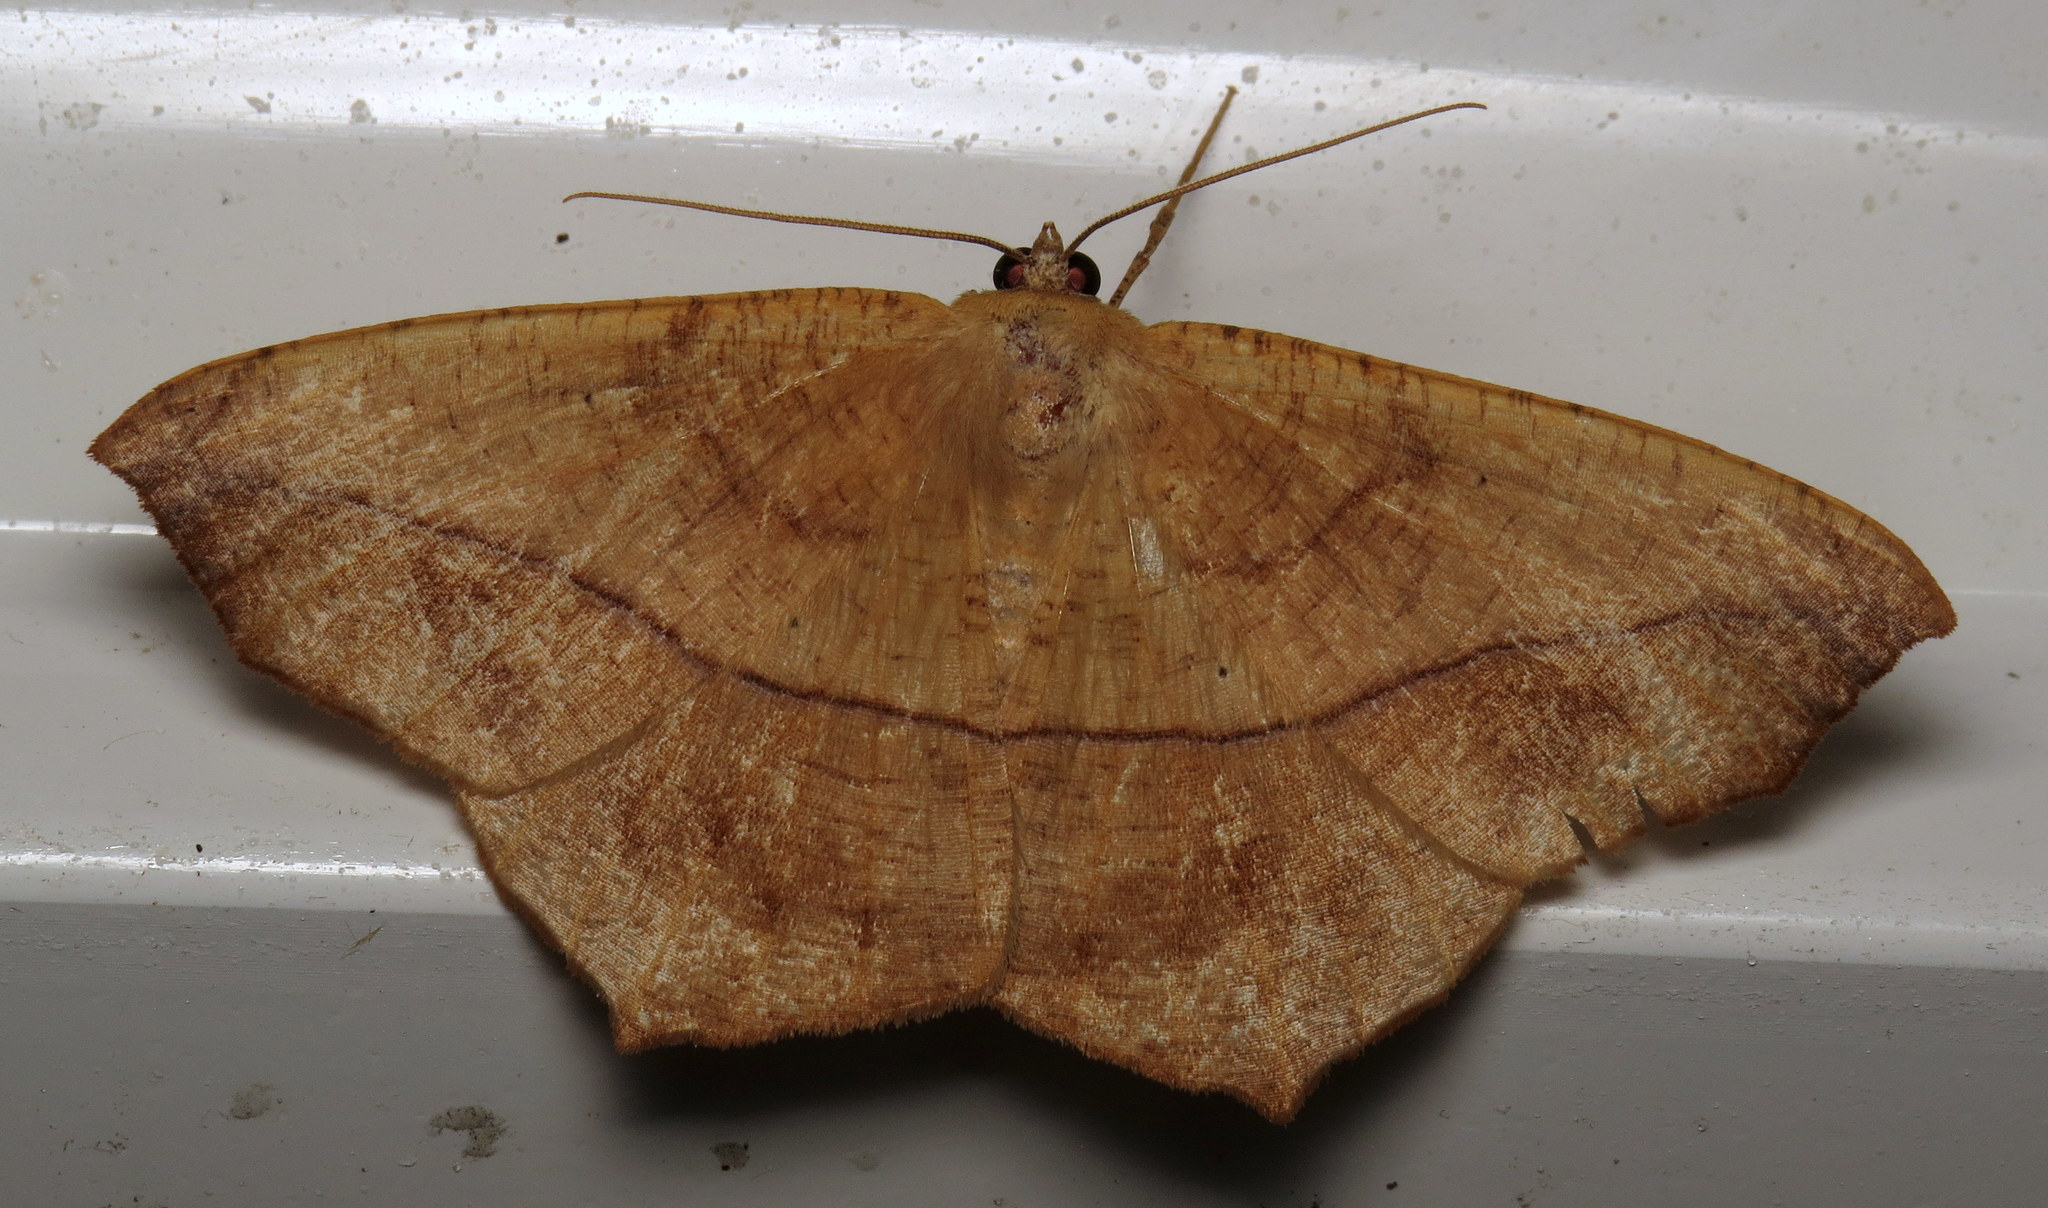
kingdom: Animalia
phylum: Arthropoda
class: Insecta
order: Lepidoptera
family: Geometridae
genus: Prochoerodes
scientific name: Prochoerodes lineola
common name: Large maple spanworm
